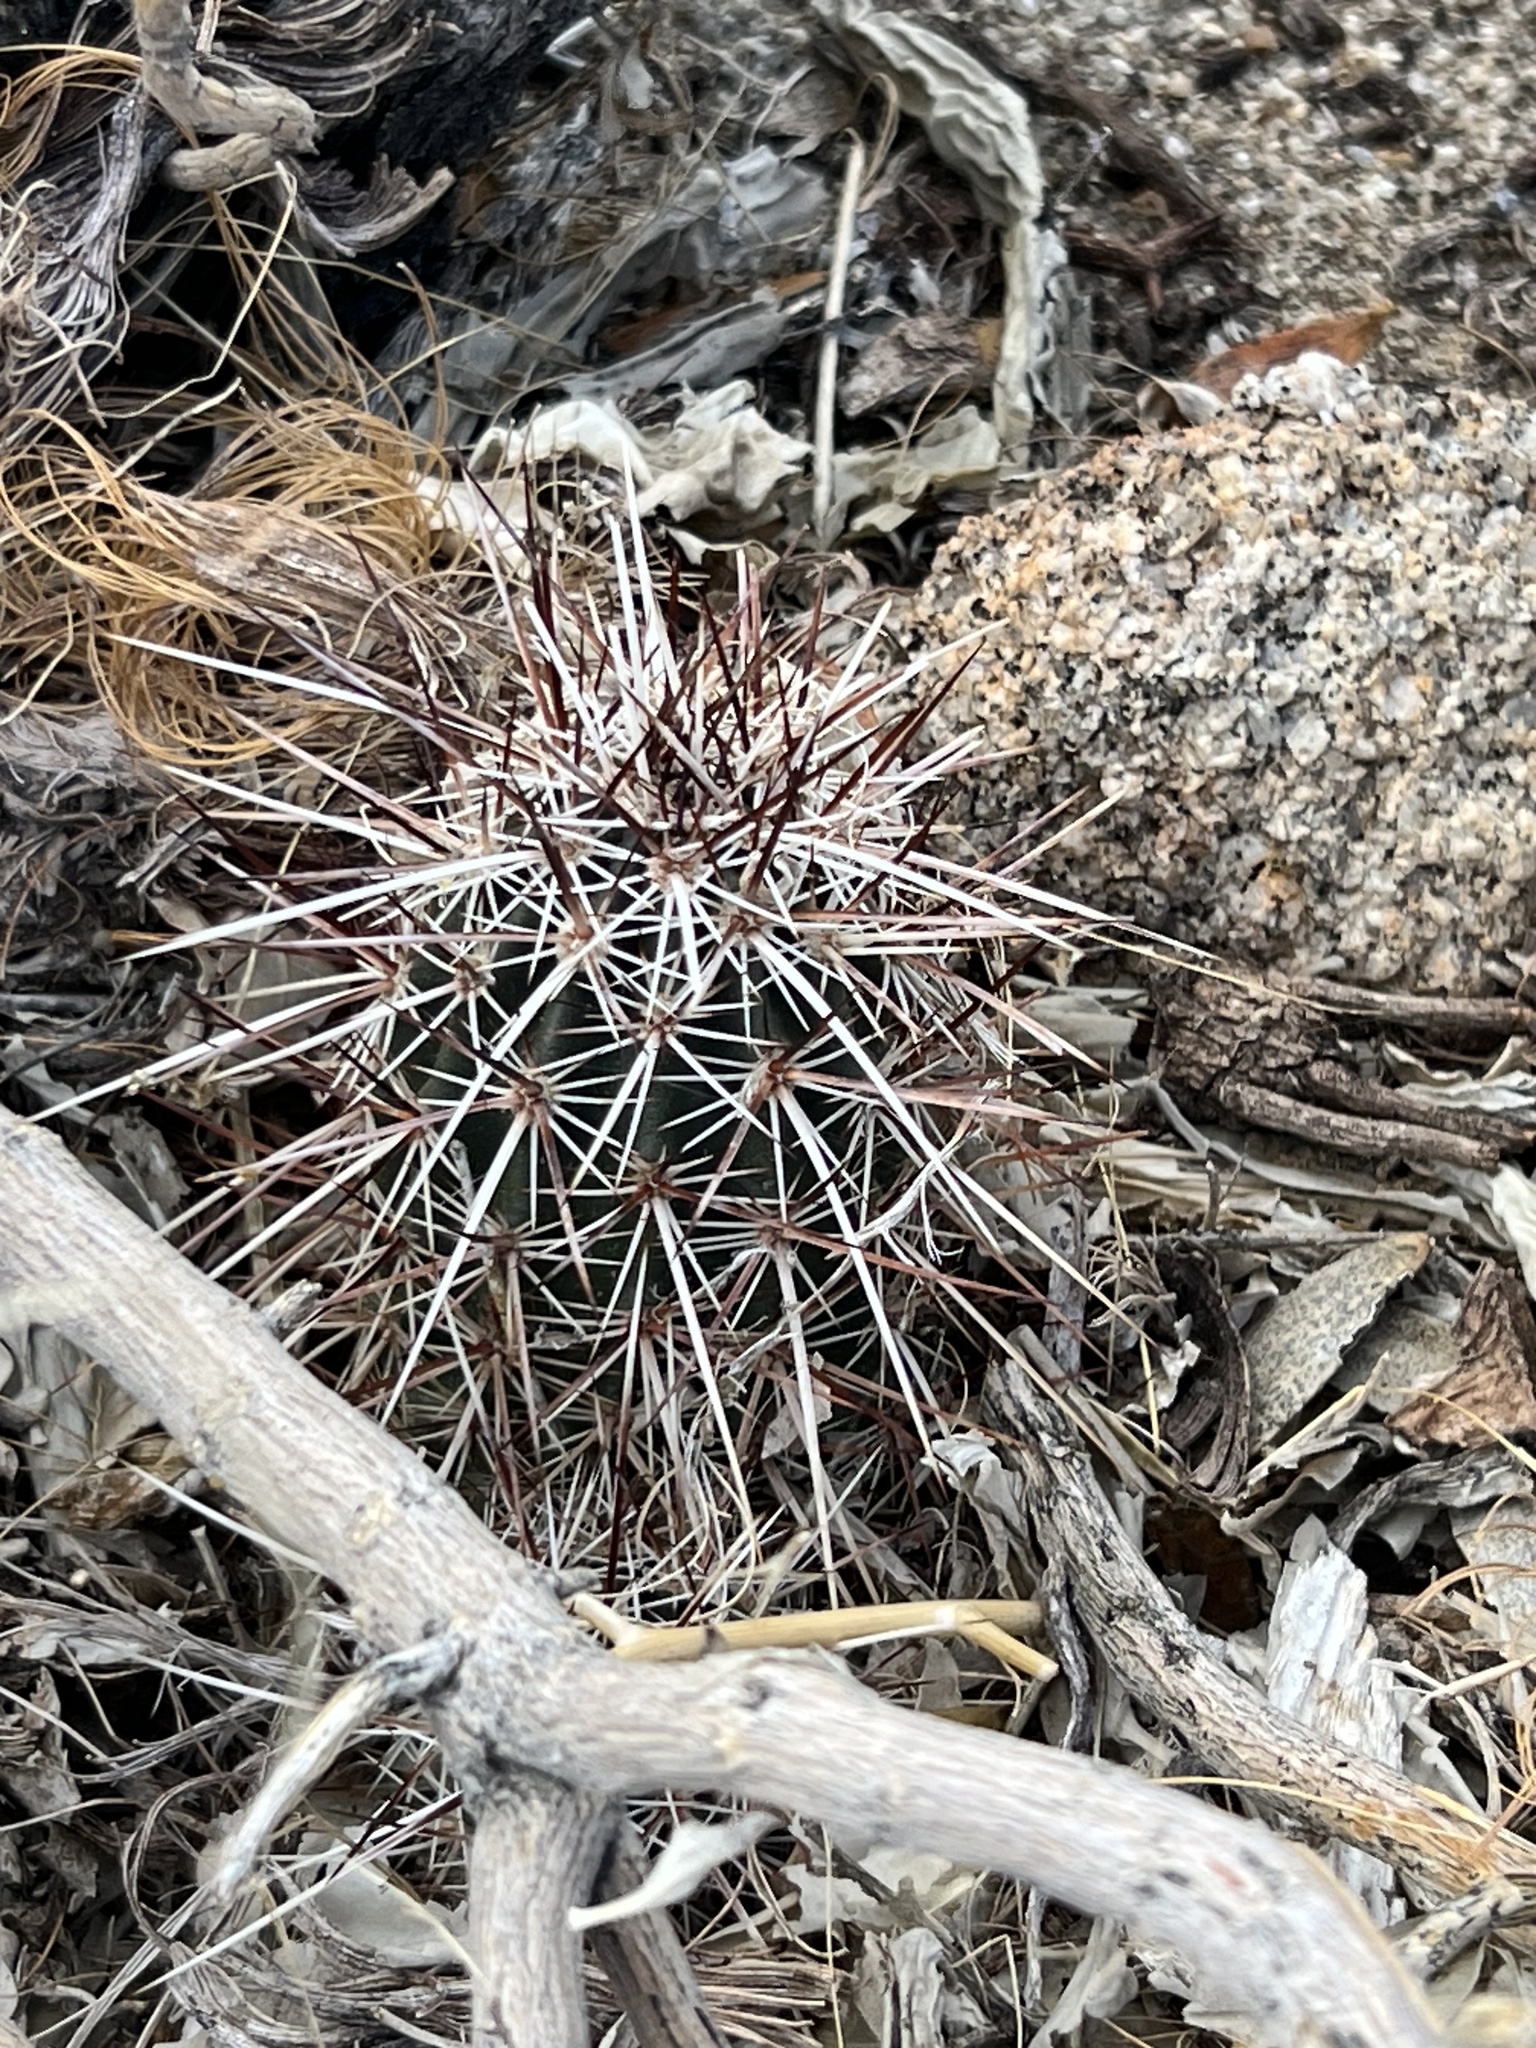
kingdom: Plantae
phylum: Tracheophyta
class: Magnoliopsida
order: Caryophyllales
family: Cactaceae
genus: Echinocereus
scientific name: Echinocereus engelmannii
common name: Engelmann's hedgehog cactus
